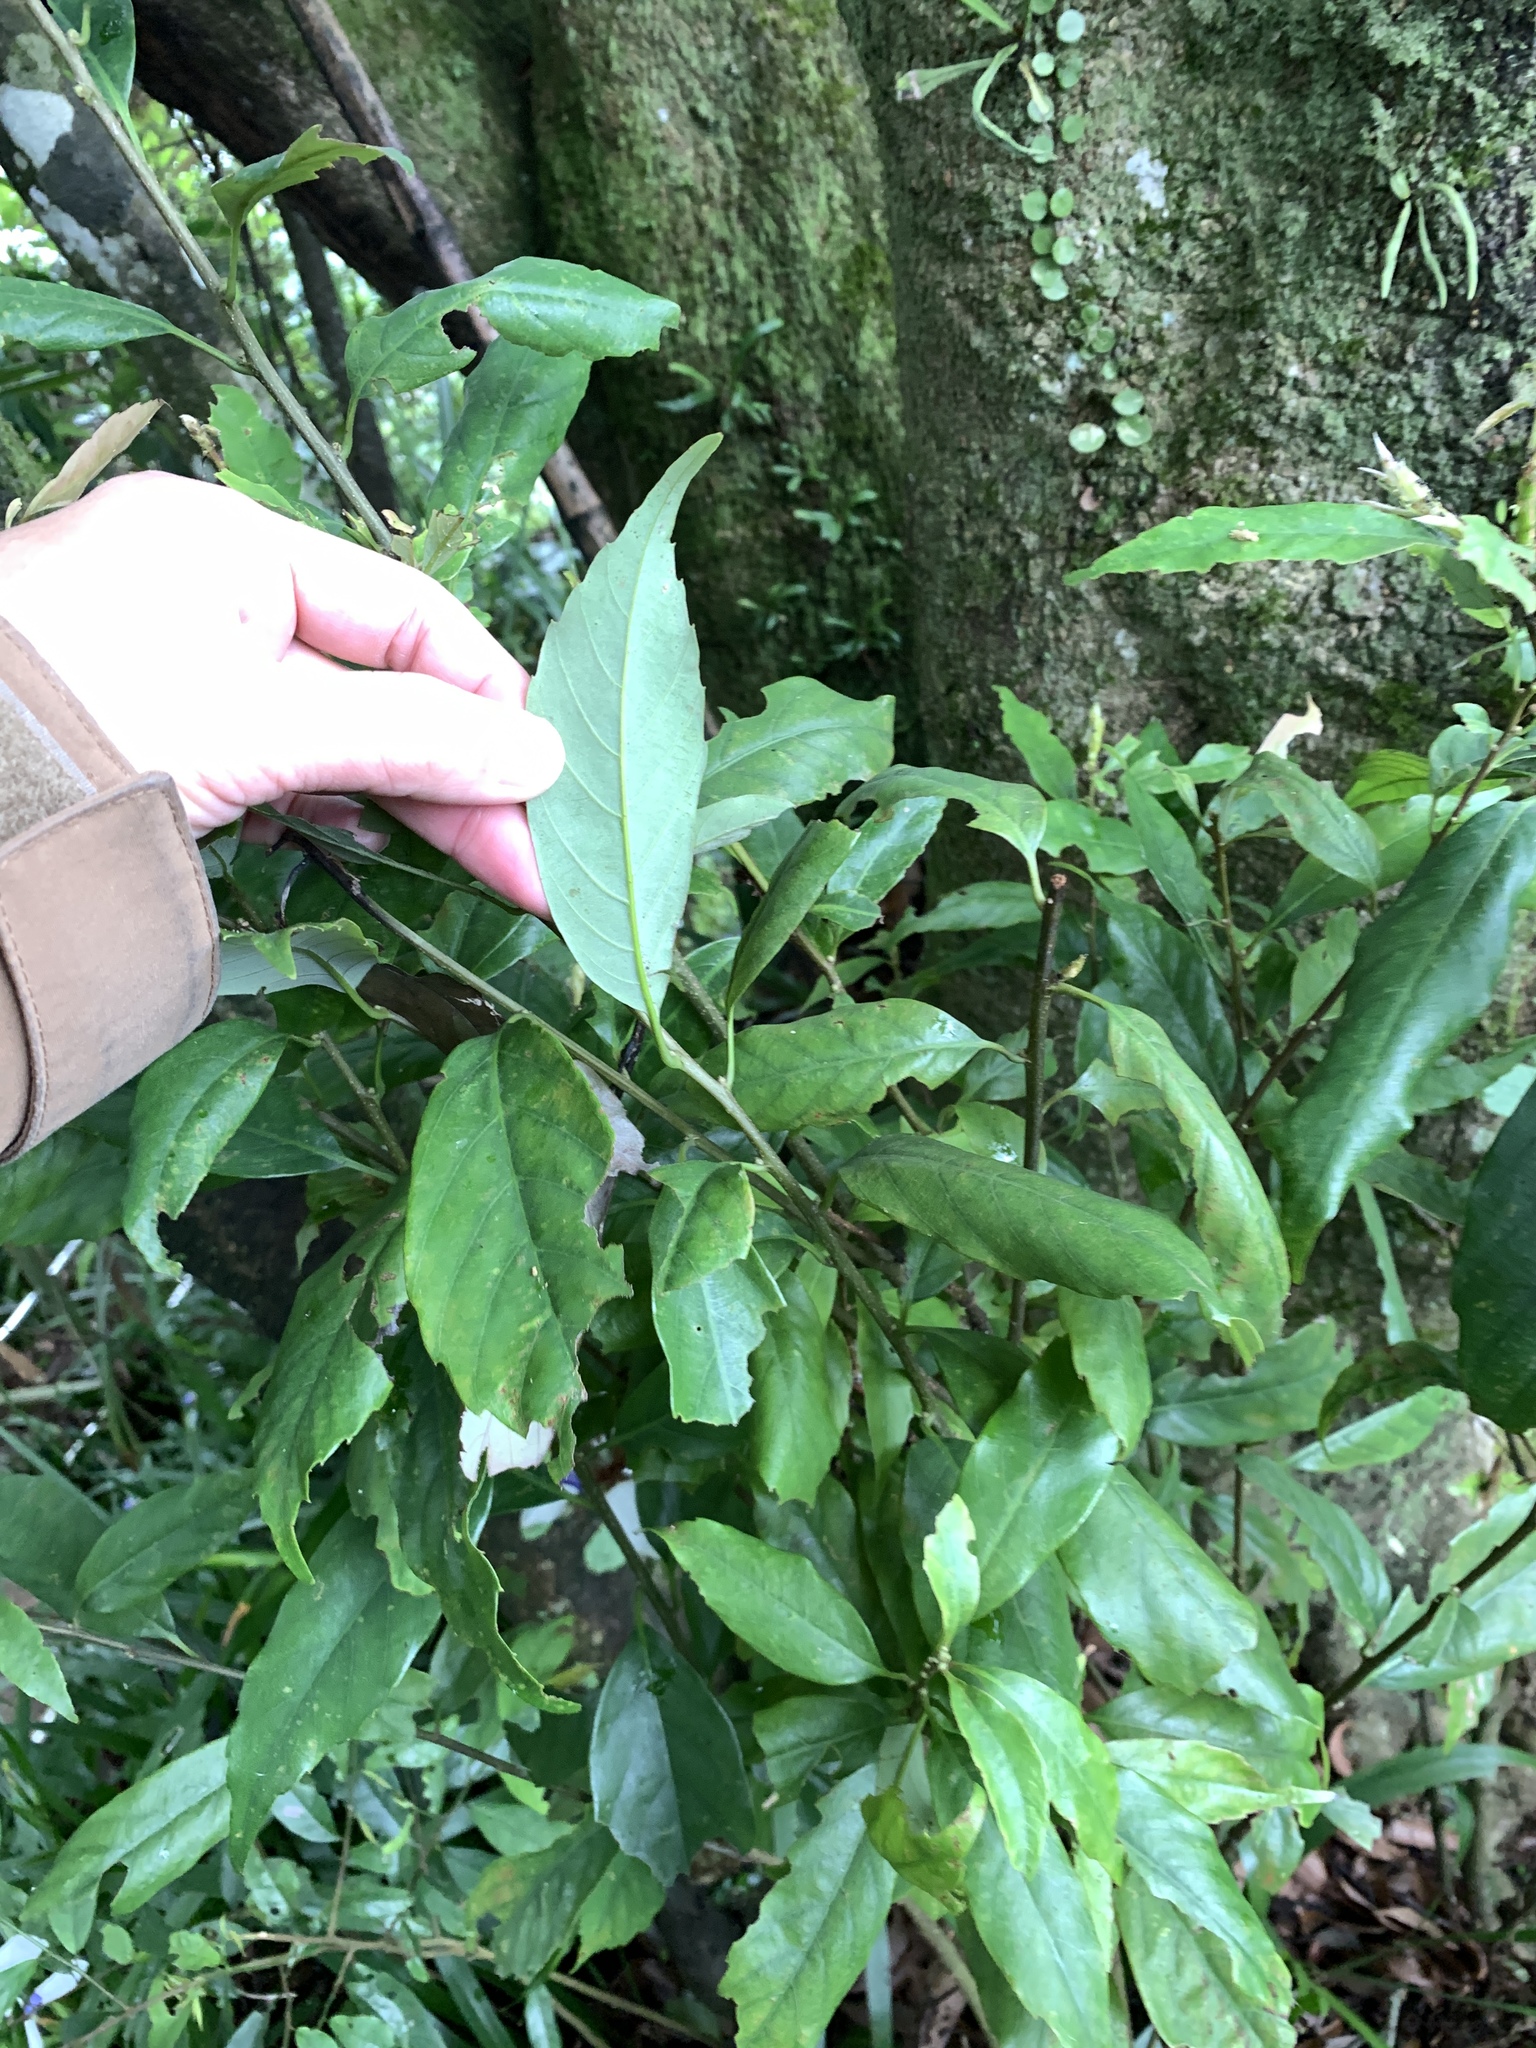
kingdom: Plantae
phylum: Tracheophyta
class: Magnoliopsida
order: Fagales
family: Fagaceae
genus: Quercus
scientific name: Quercus glauca
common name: Ring-cup oak
